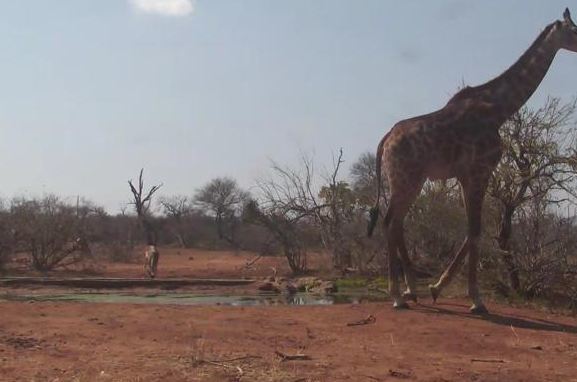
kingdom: Animalia
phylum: Chordata
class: Mammalia
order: Artiodactyla
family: Giraffidae
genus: Giraffa
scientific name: Giraffa giraffa
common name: Southern giraffe
